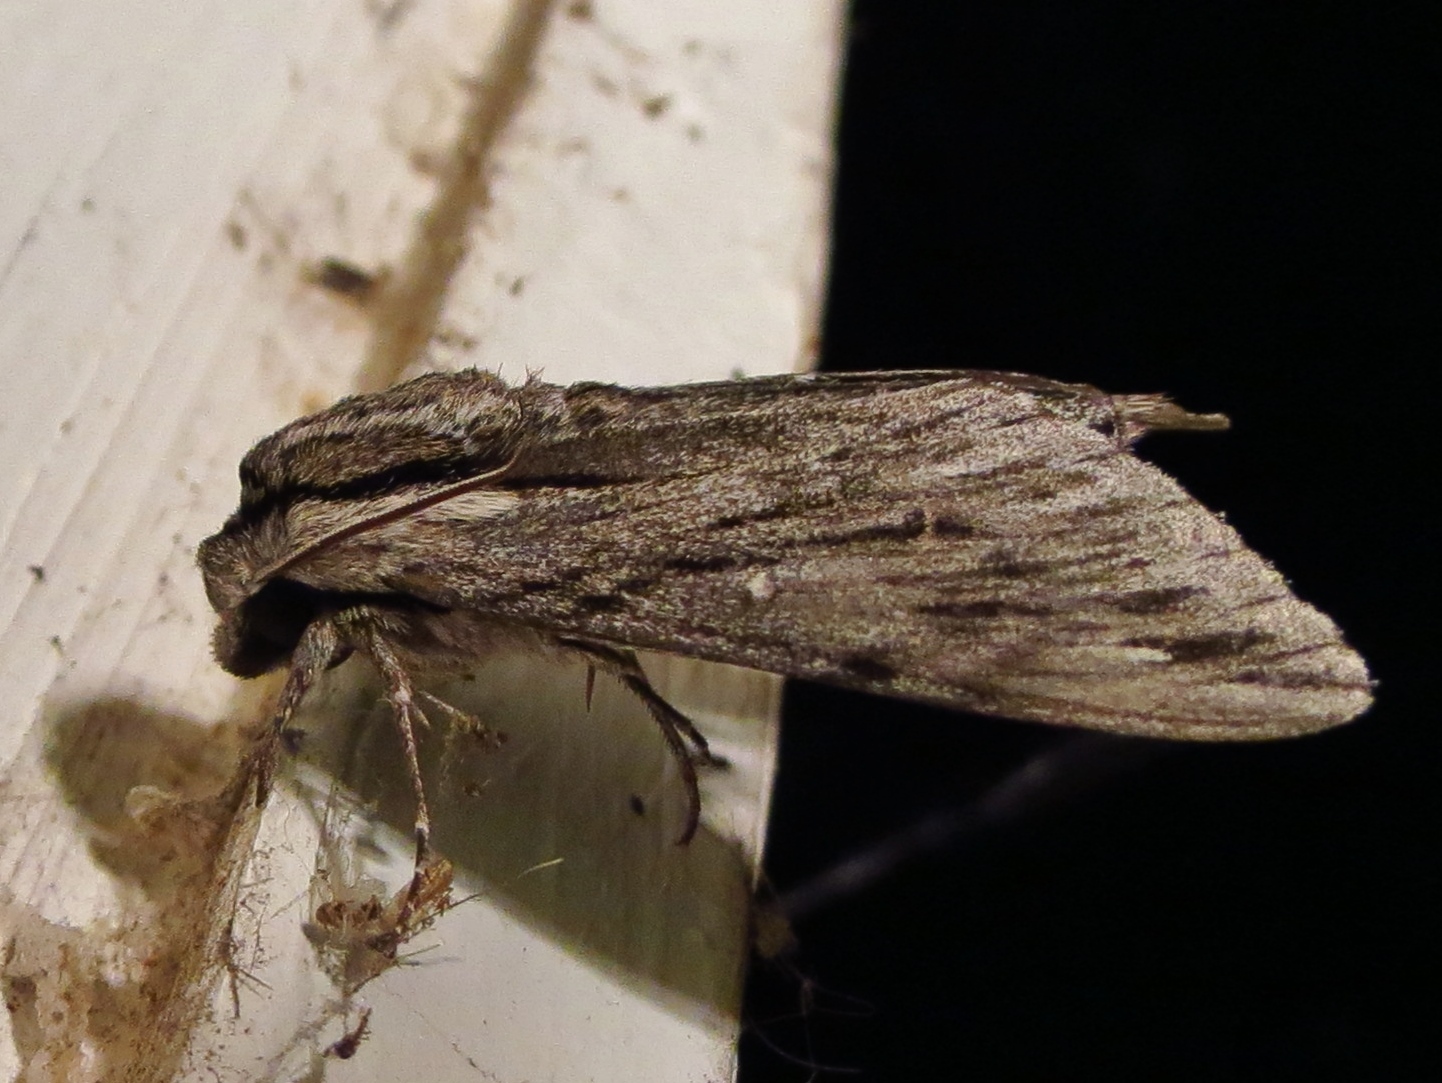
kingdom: Animalia
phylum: Arthropoda
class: Insecta
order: Lepidoptera
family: Sphingidae
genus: Paratrea
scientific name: Paratrea plebeja
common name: Plebian sphinx
